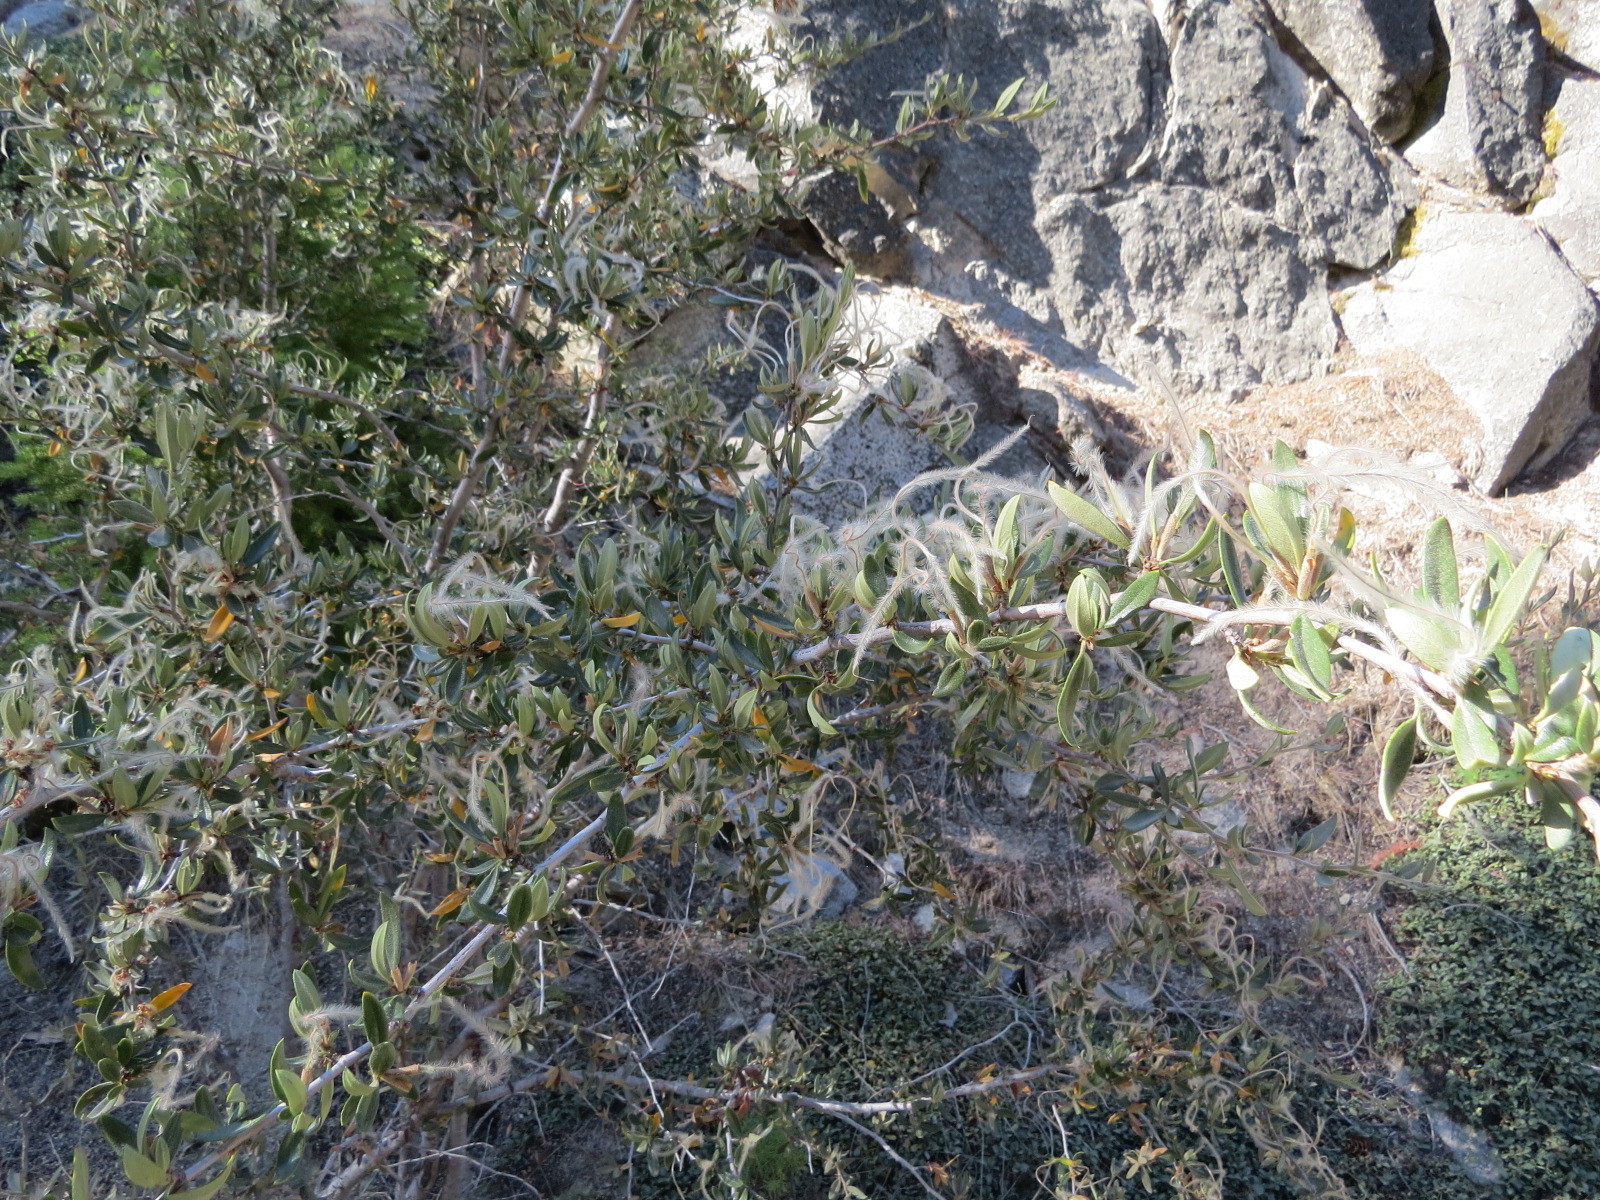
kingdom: Plantae
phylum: Tracheophyta
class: Magnoliopsida
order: Rosales
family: Rosaceae
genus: Cercocarpus
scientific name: Cercocarpus ledifolius
